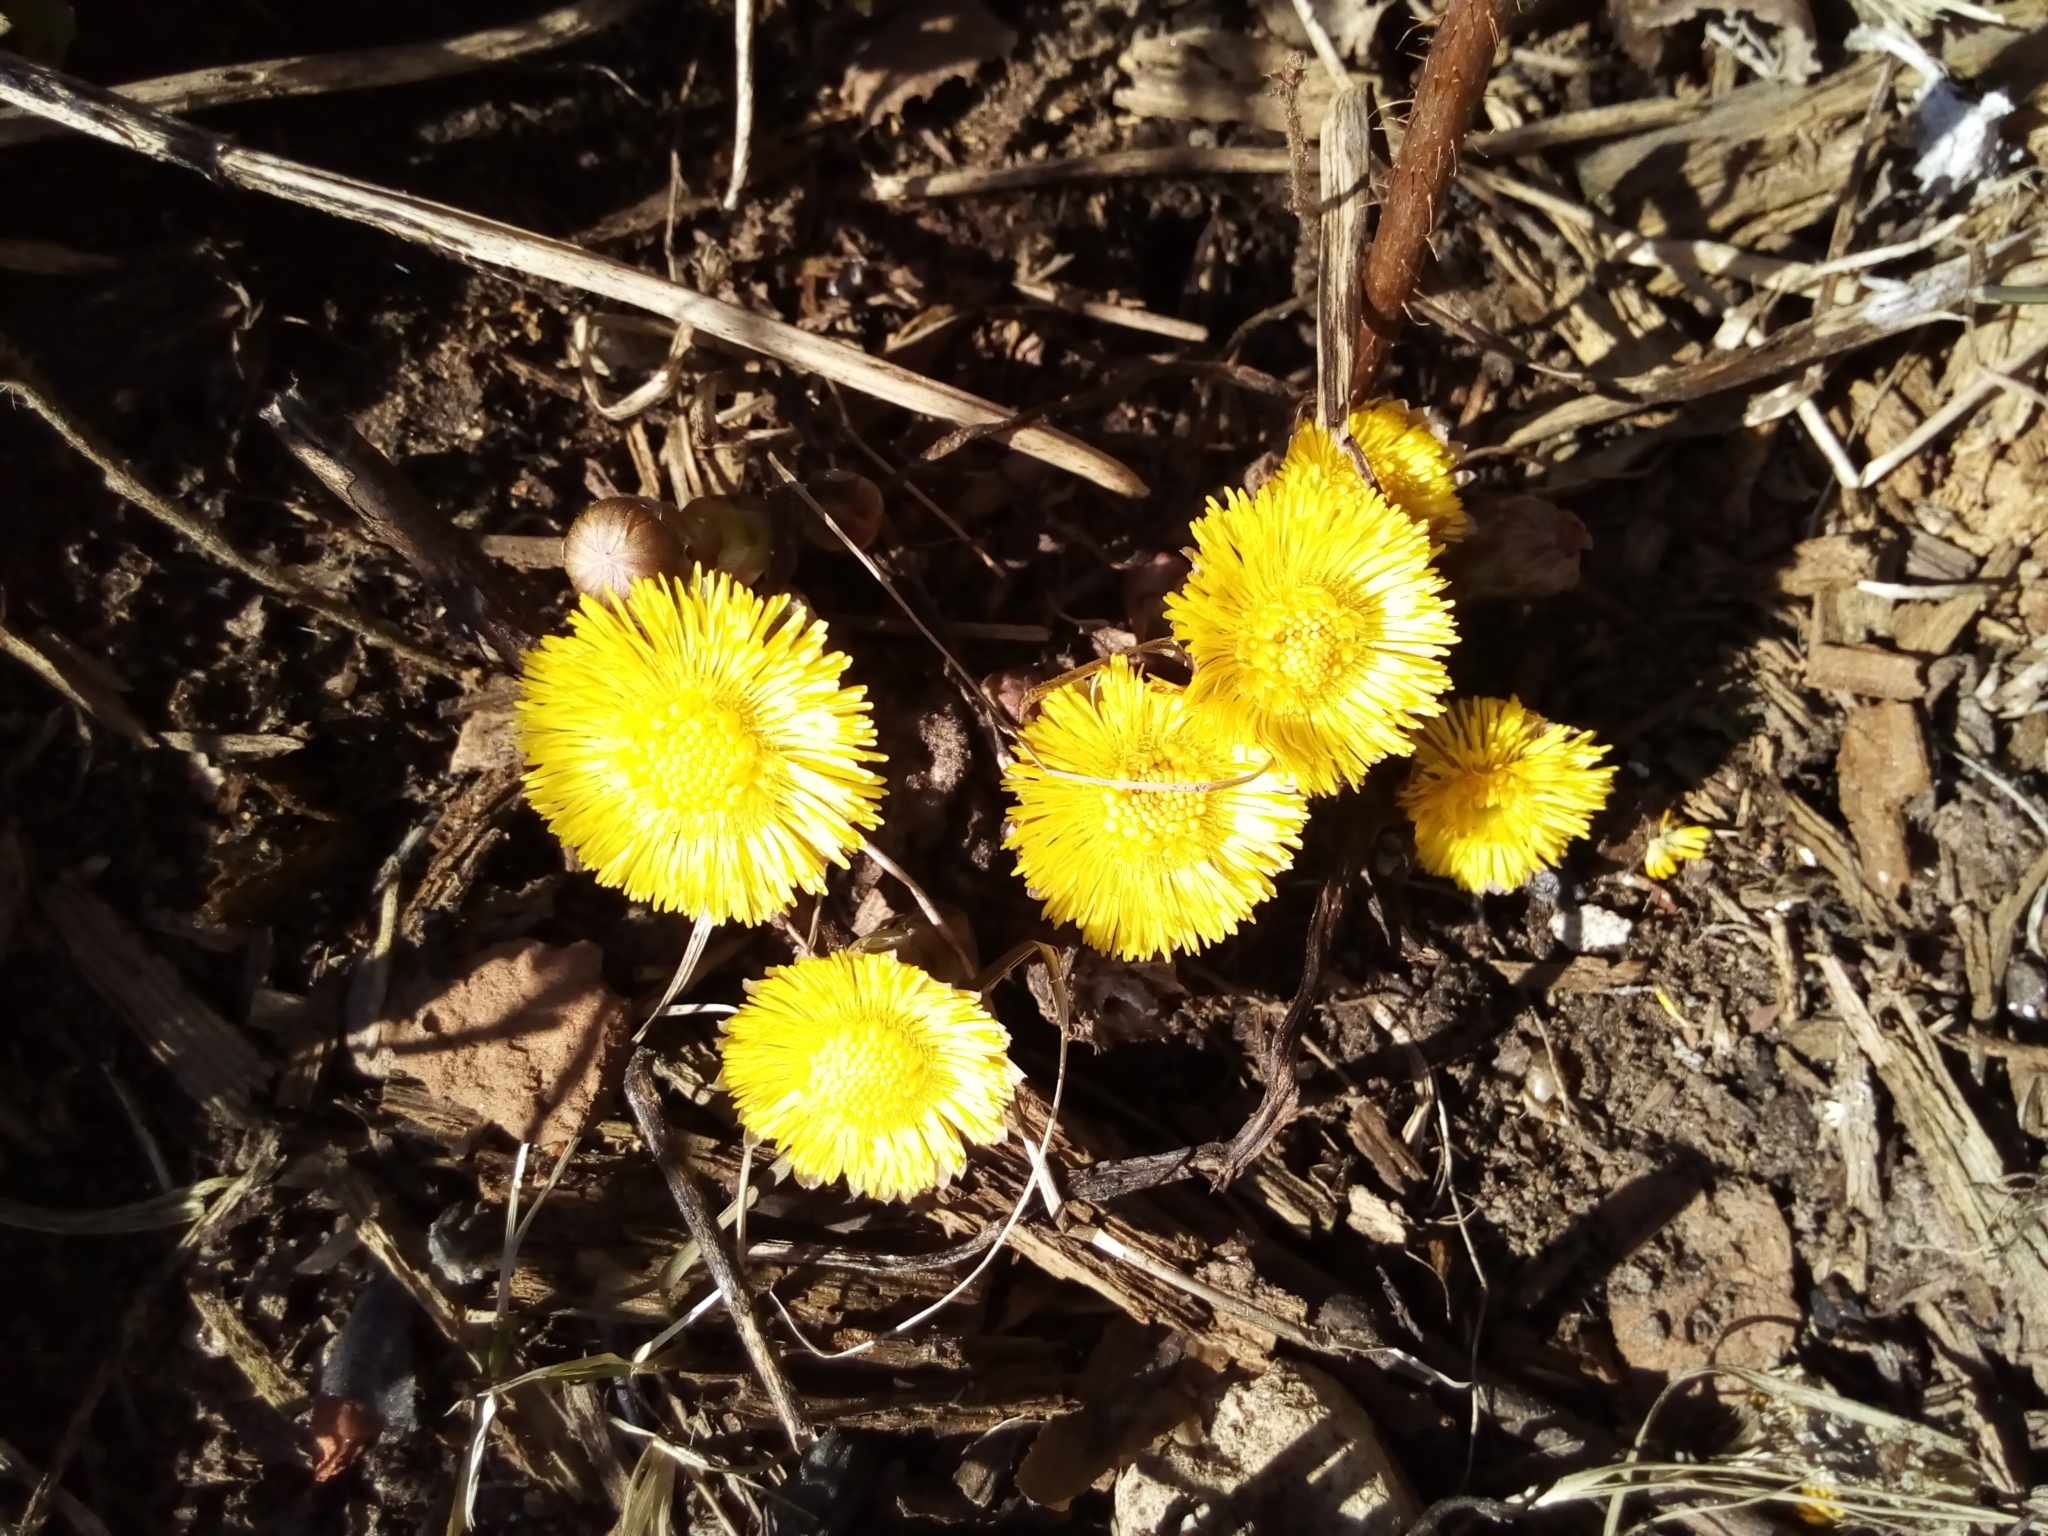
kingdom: Plantae
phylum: Tracheophyta
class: Magnoliopsida
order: Asterales
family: Asteraceae
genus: Tussilago
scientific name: Tussilago farfara
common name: Coltsfoot
